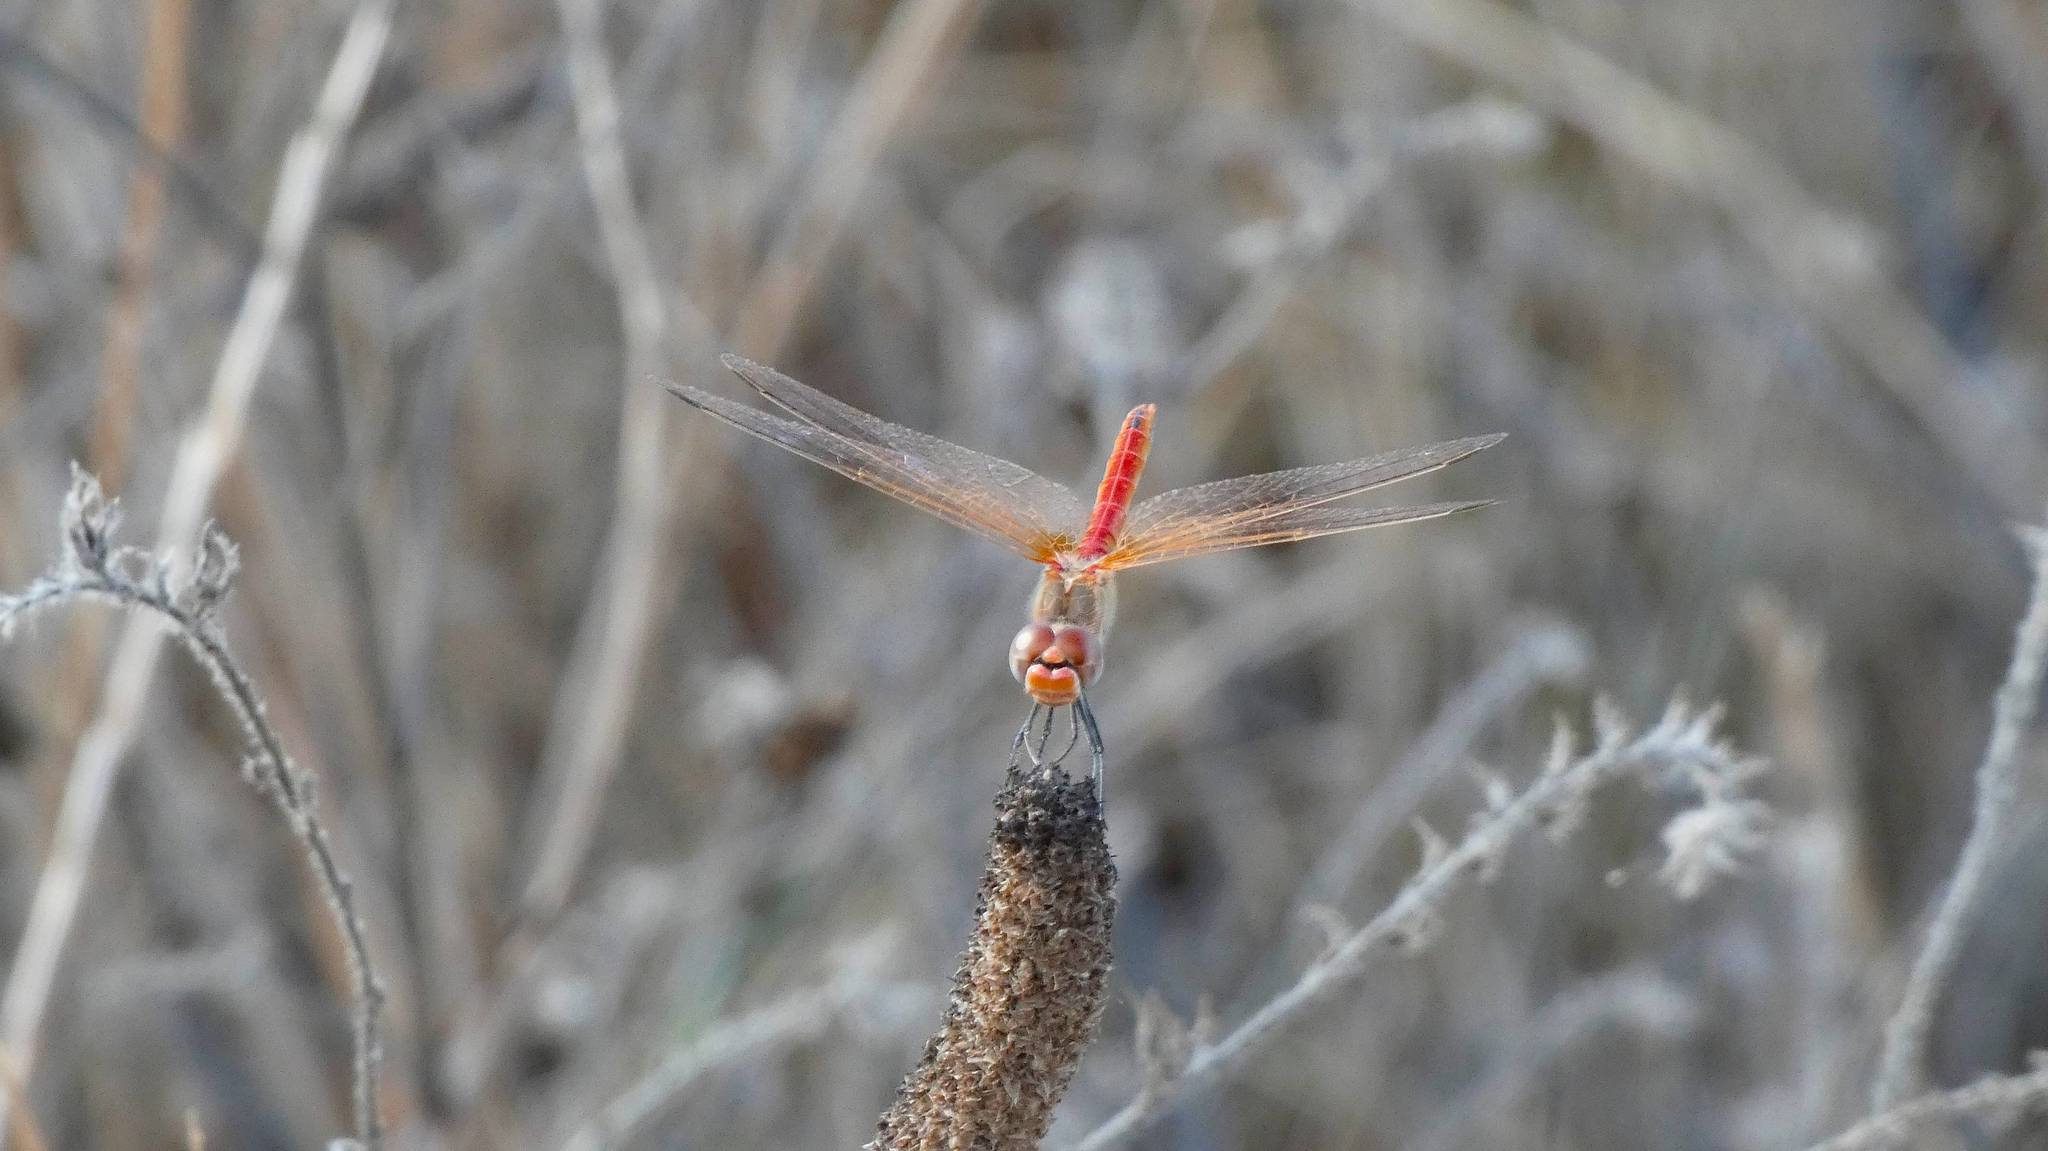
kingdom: Animalia
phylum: Arthropoda
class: Insecta
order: Odonata
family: Libellulidae
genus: Sympetrum
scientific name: Sympetrum fonscolombii
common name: Red-veined darter
